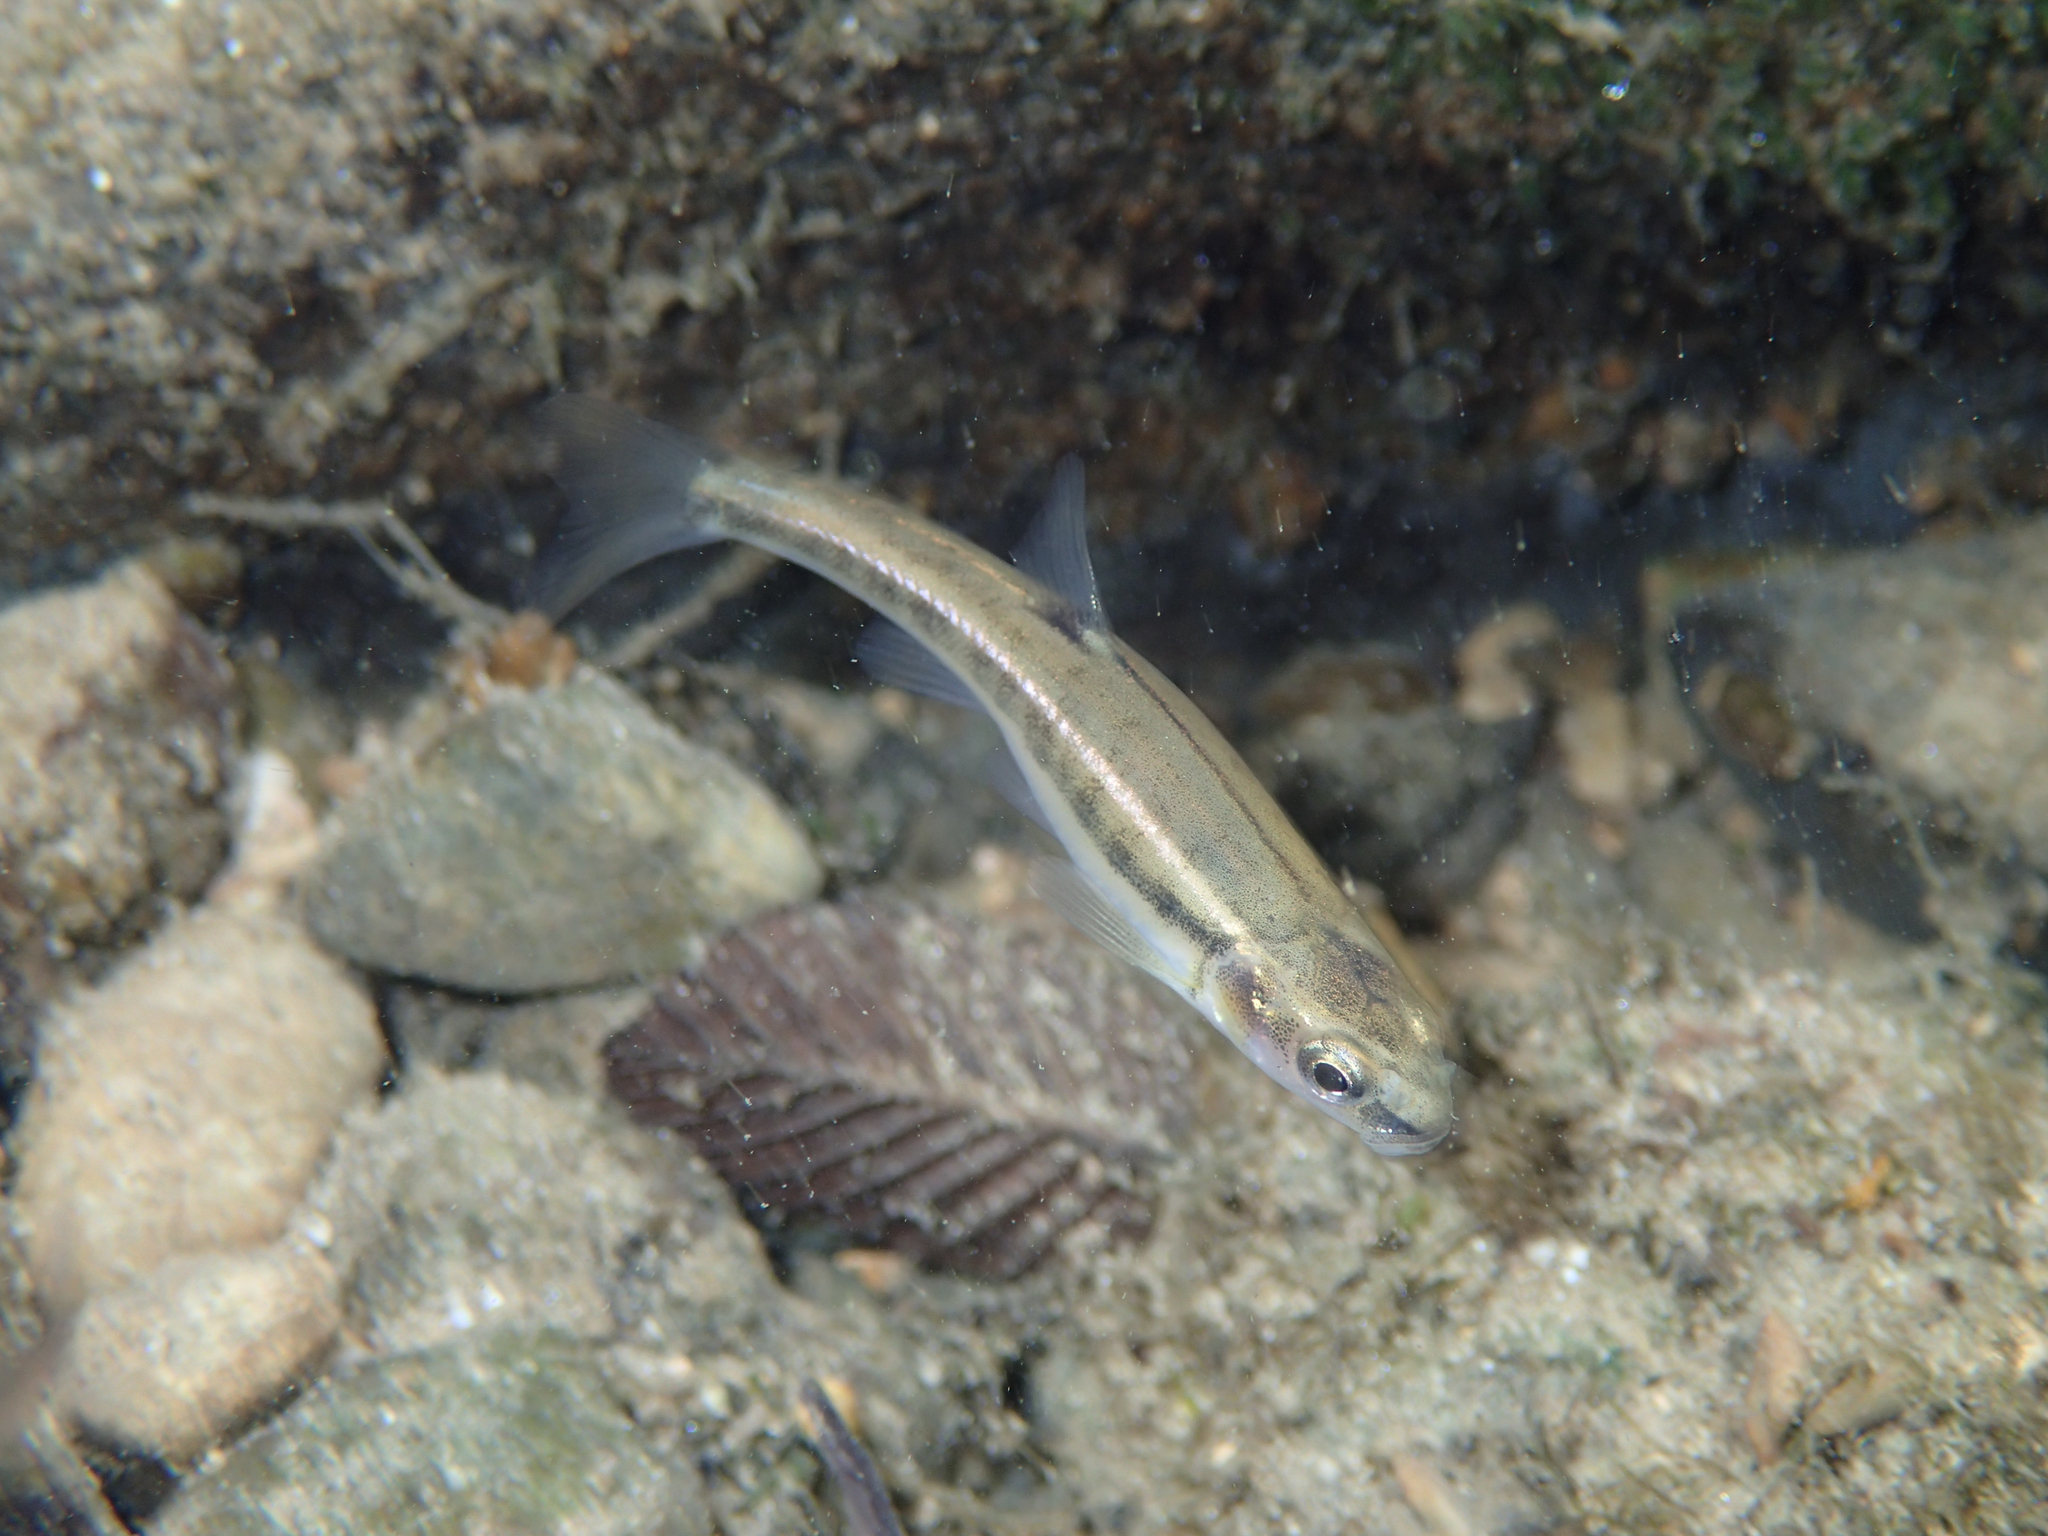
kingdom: Animalia
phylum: Chordata
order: Cypriniformes
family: Cyprinidae
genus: Phoxinus
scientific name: Phoxinus phoxinus
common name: Minnow
